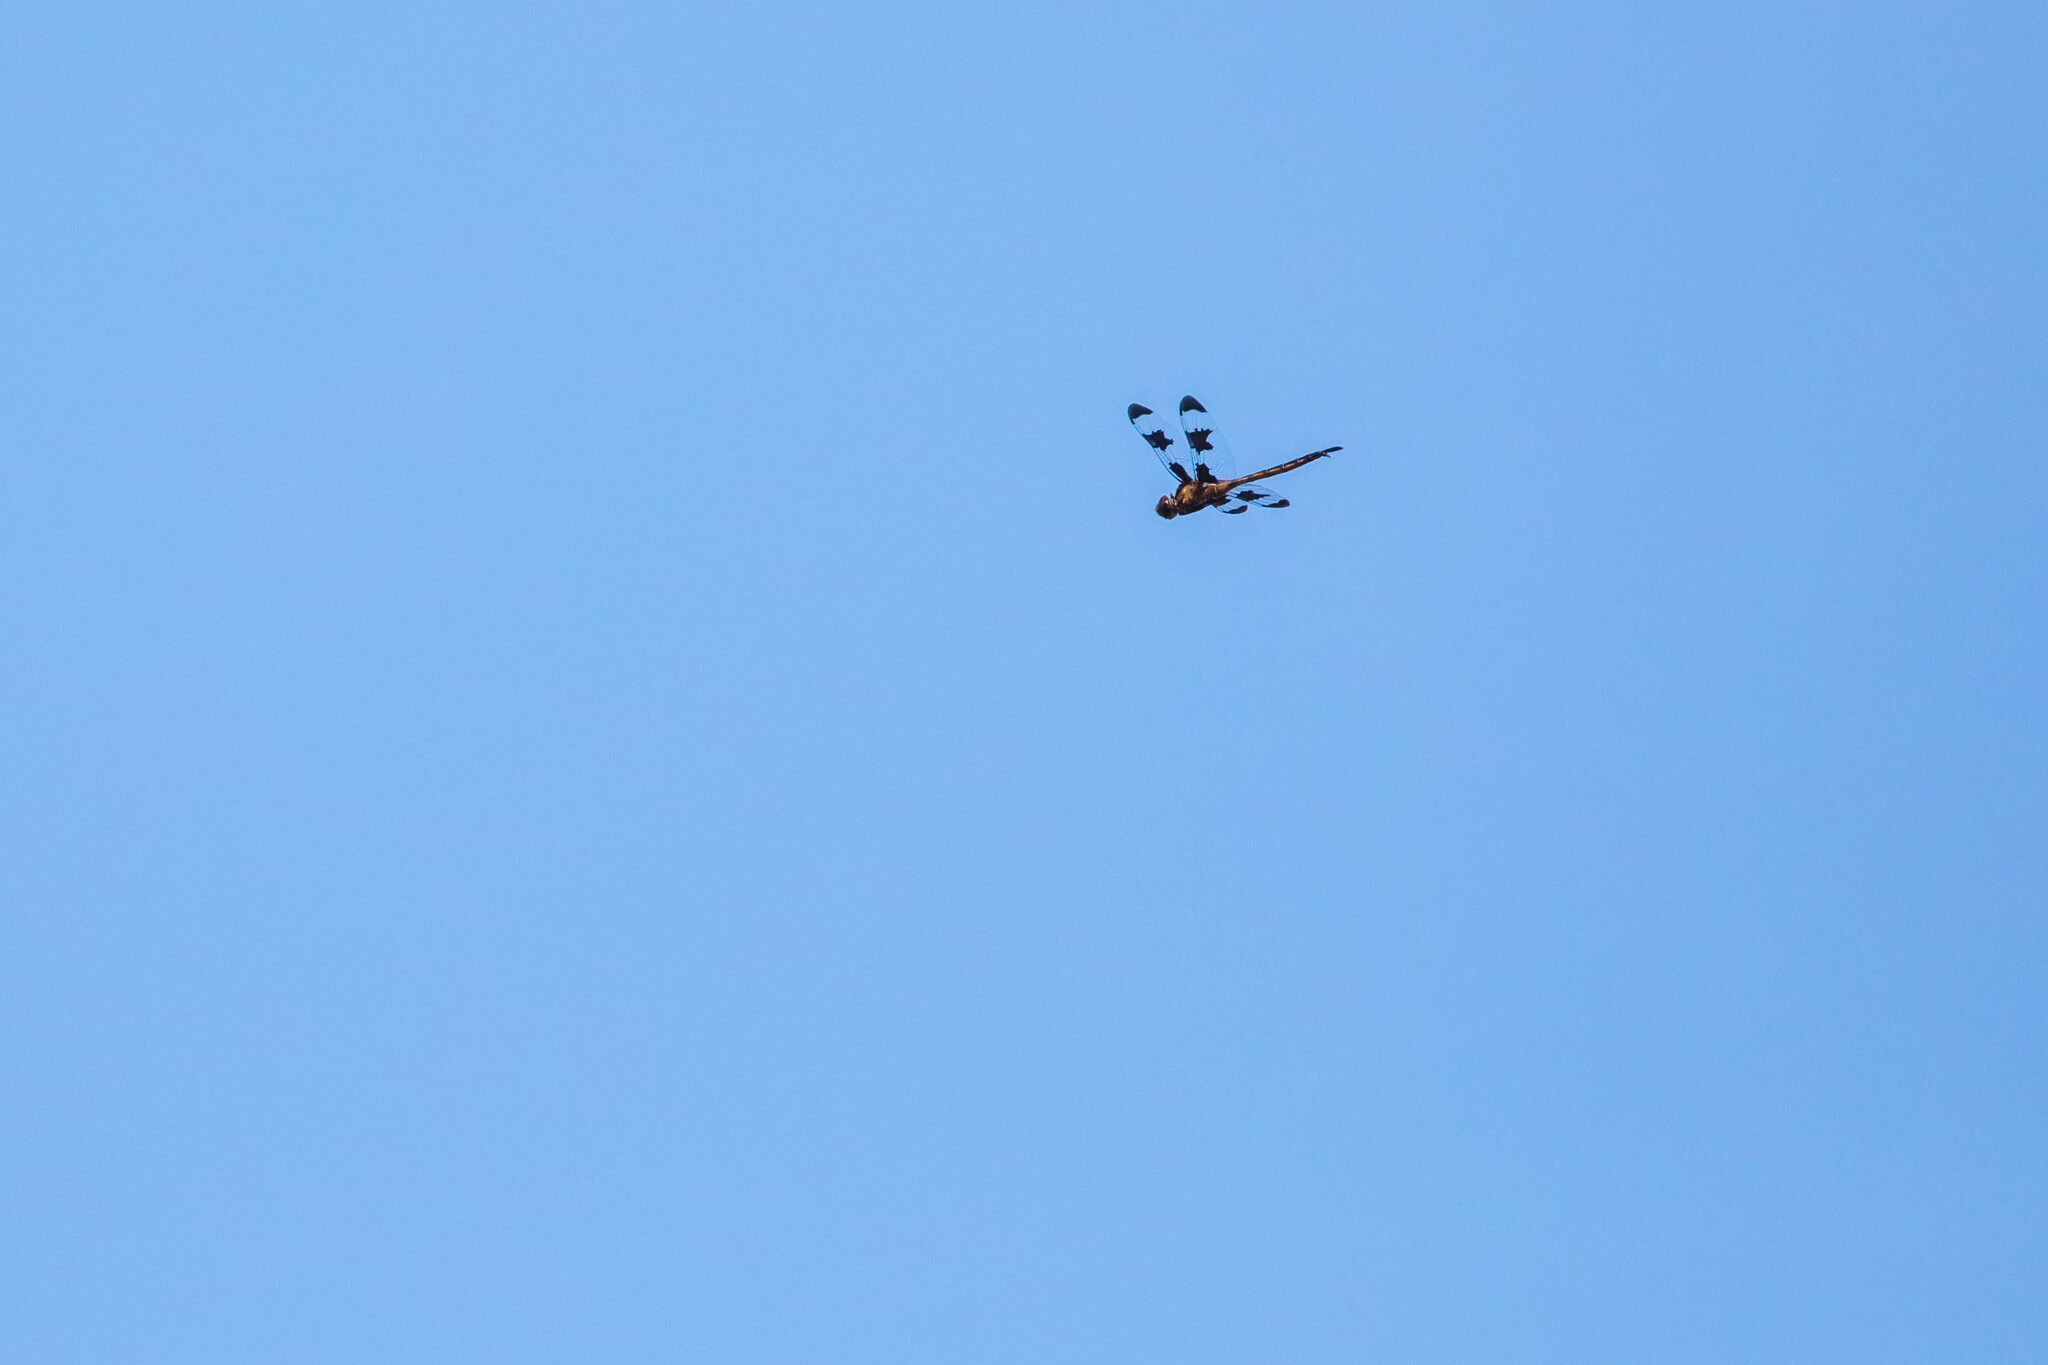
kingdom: Animalia
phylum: Arthropoda
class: Insecta
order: Odonata
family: Corduliidae
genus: Epitheca
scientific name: Epitheca princeps
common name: Prince baskettail
